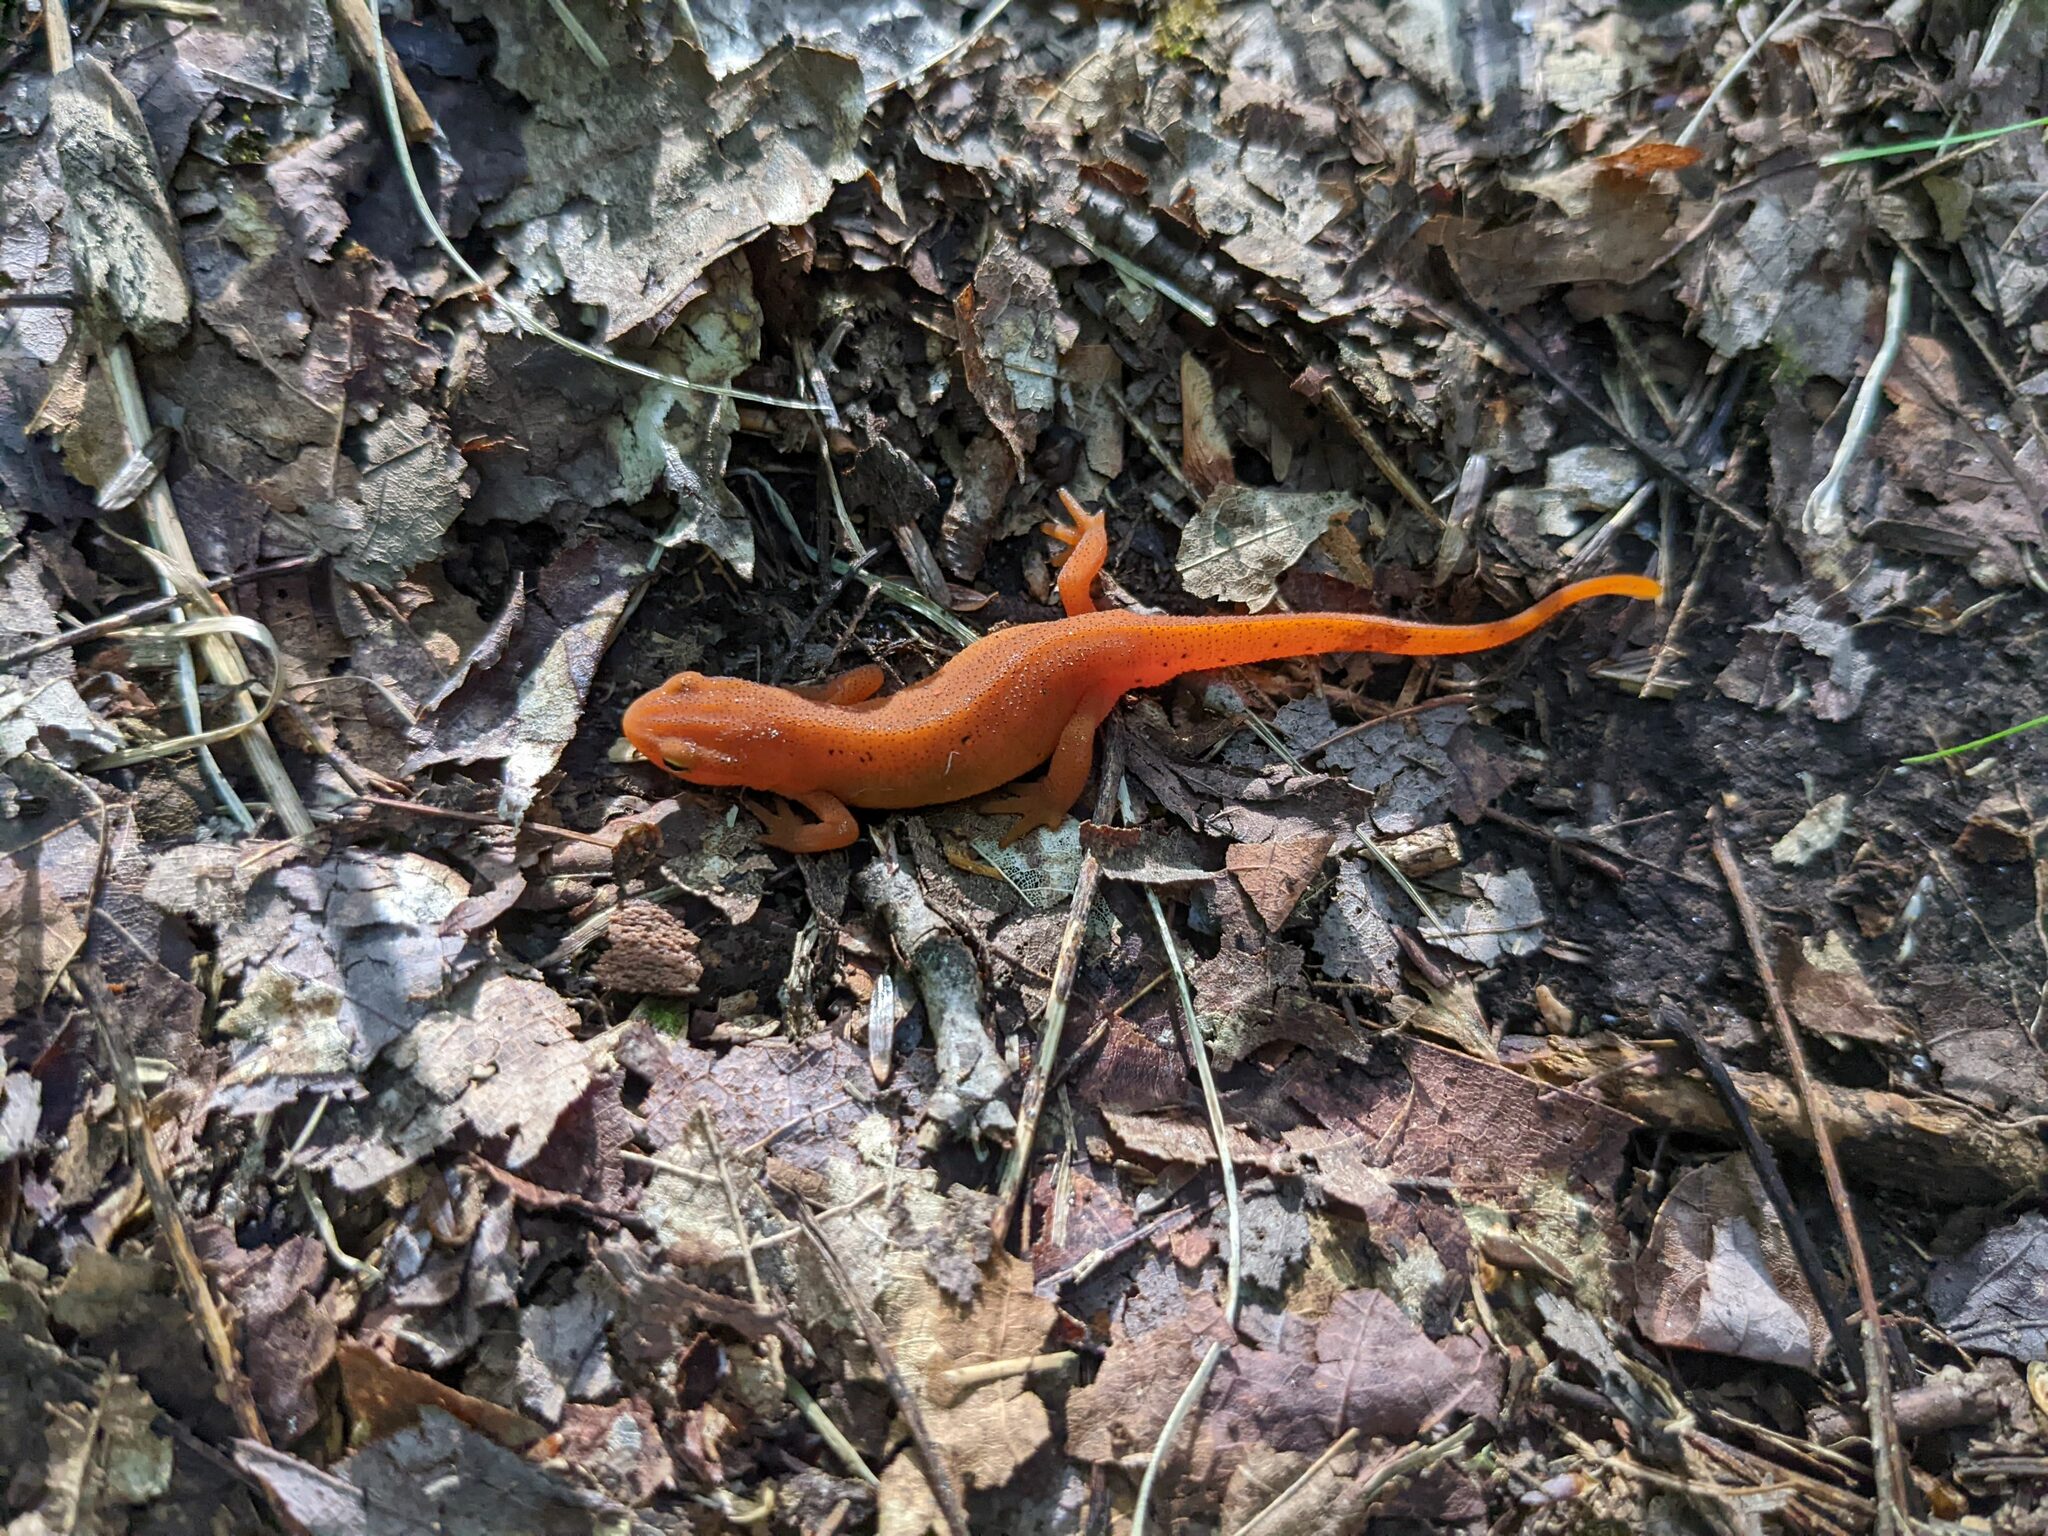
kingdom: Animalia
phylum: Chordata
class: Amphibia
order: Caudata
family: Salamandridae
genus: Notophthalmus
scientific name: Notophthalmus viridescens
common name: Eastern newt
